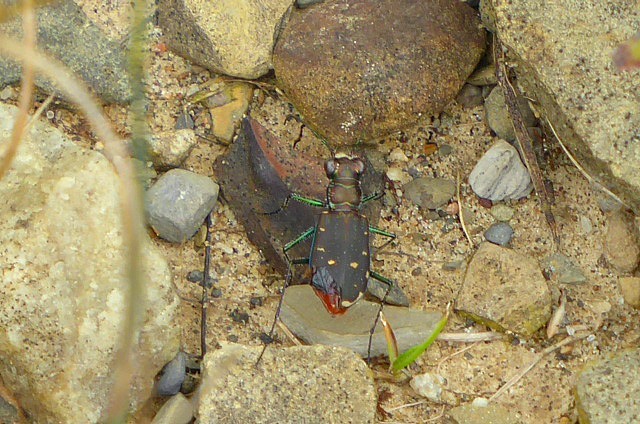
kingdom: Animalia
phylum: Arthropoda
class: Insecta
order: Coleoptera
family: Carabidae
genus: Cicindela
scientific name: Cicindela rufiventris
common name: Eastern red-bellied tiger beetle
